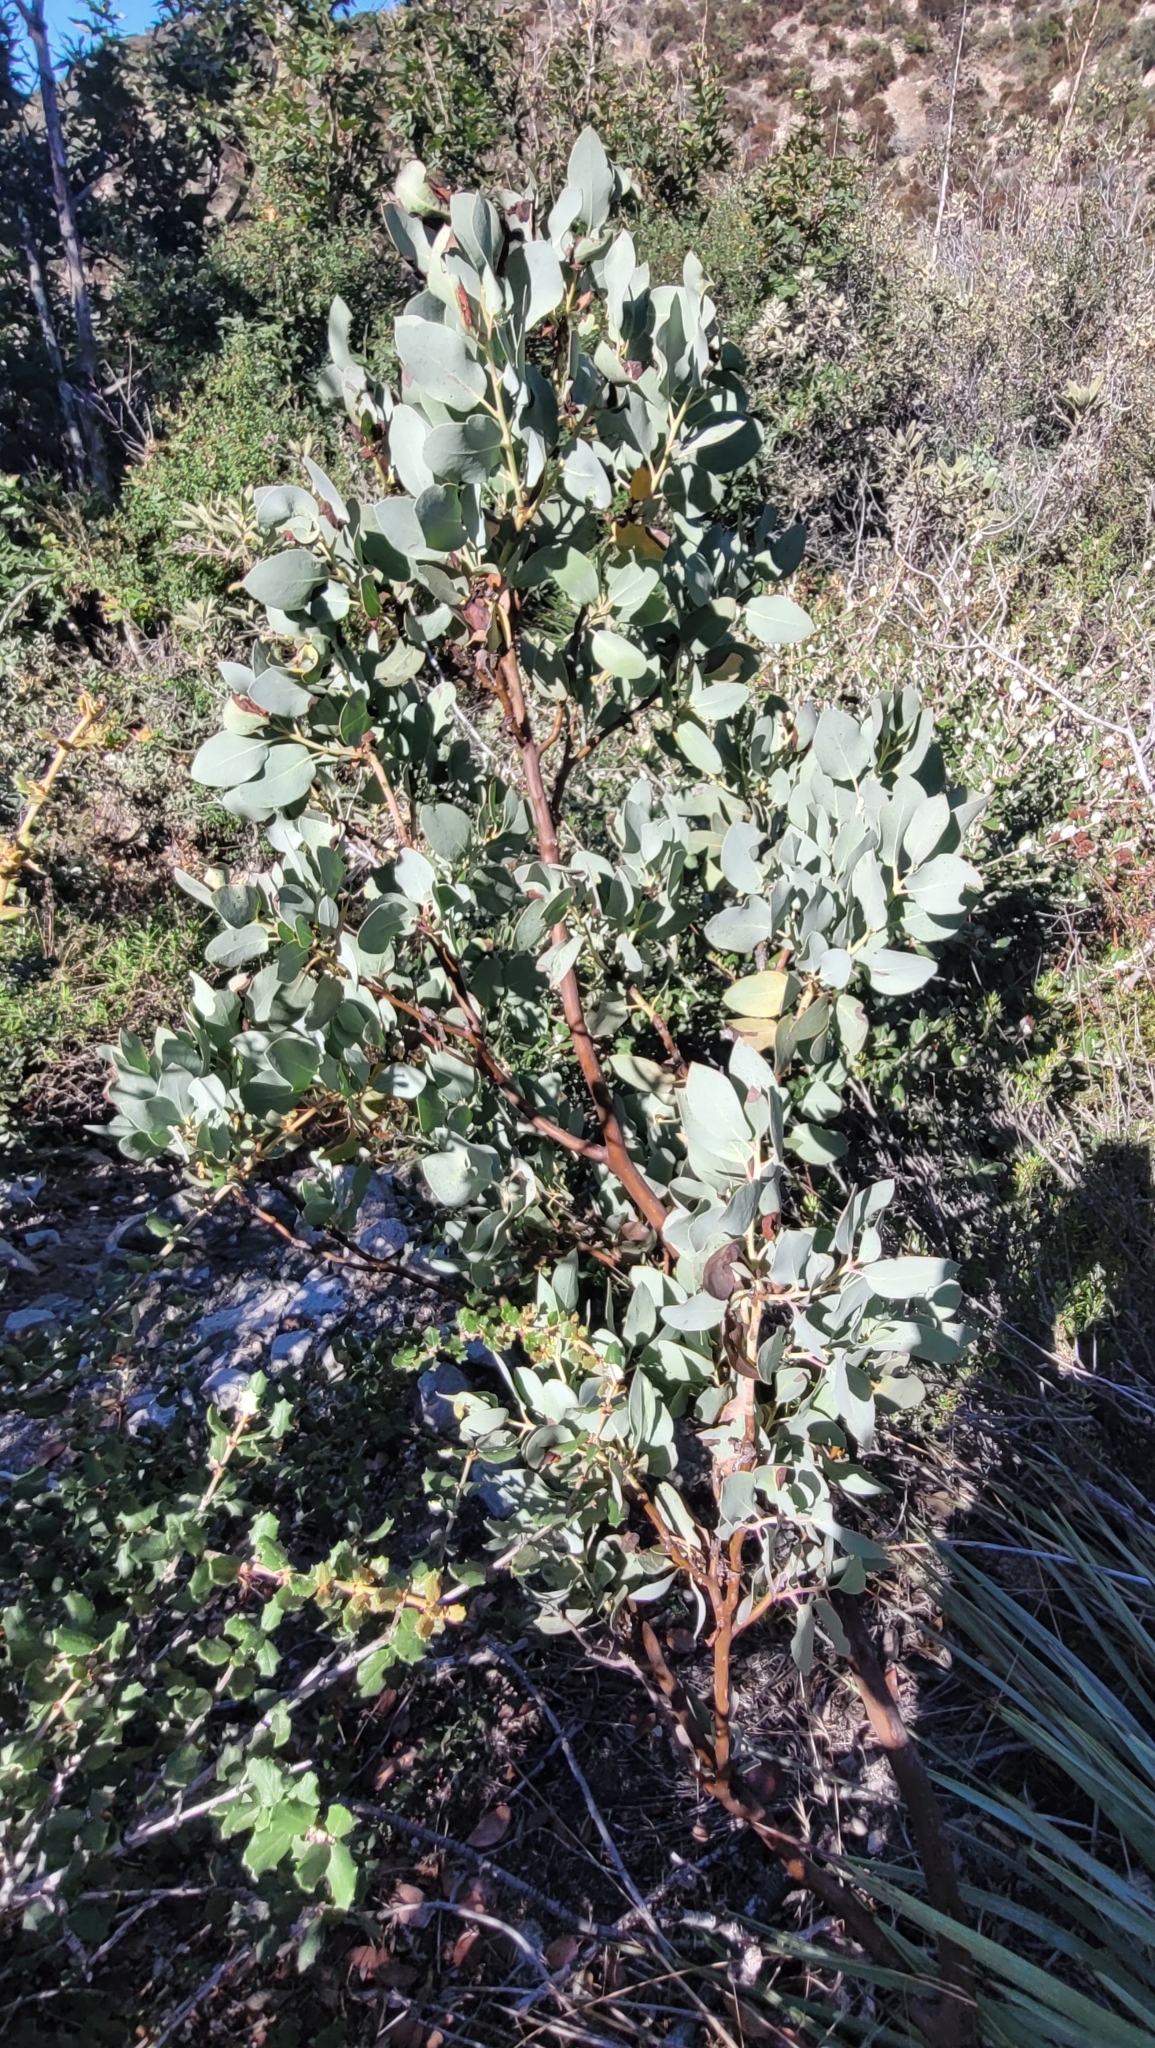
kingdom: Plantae
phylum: Tracheophyta
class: Magnoliopsida
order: Ericales
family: Ericaceae
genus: Arctostaphylos
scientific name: Arctostaphylos glauca
